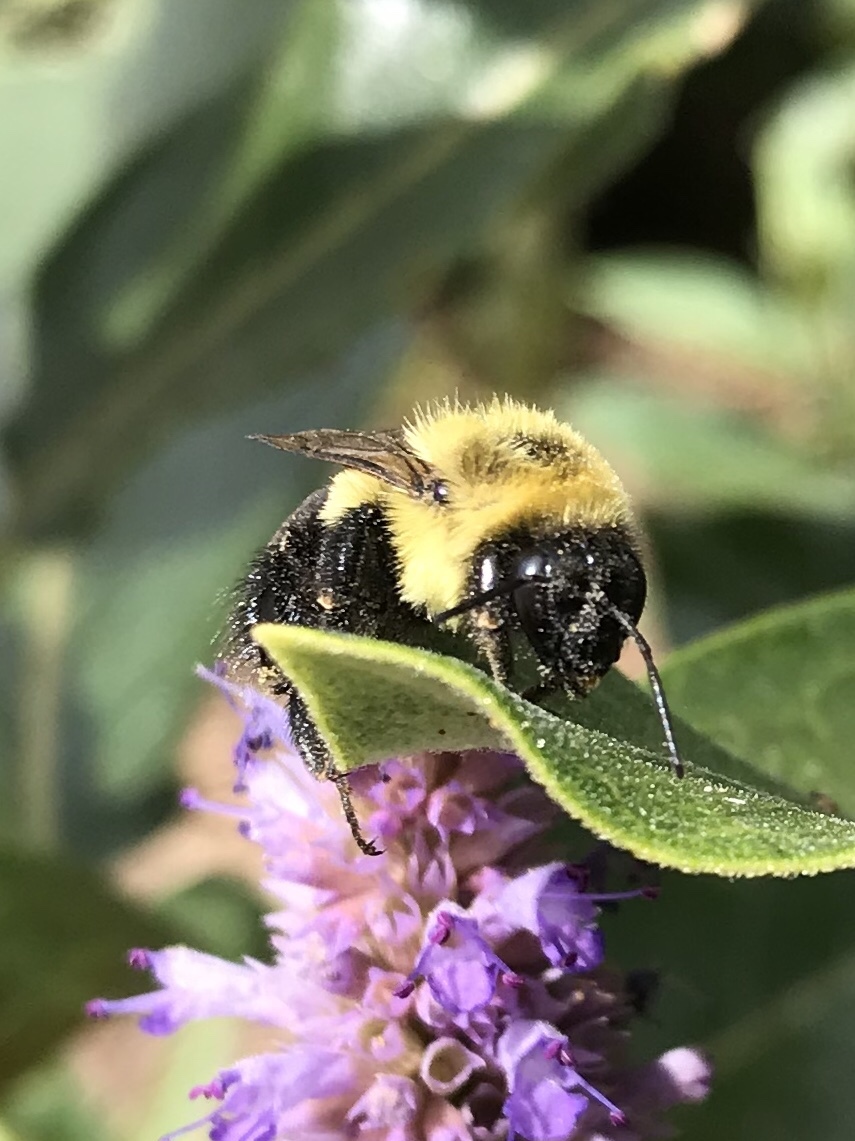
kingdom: Animalia
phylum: Arthropoda
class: Insecta
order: Hymenoptera
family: Apidae
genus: Bombus
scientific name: Bombus impatiens
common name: Common eastern bumble bee
